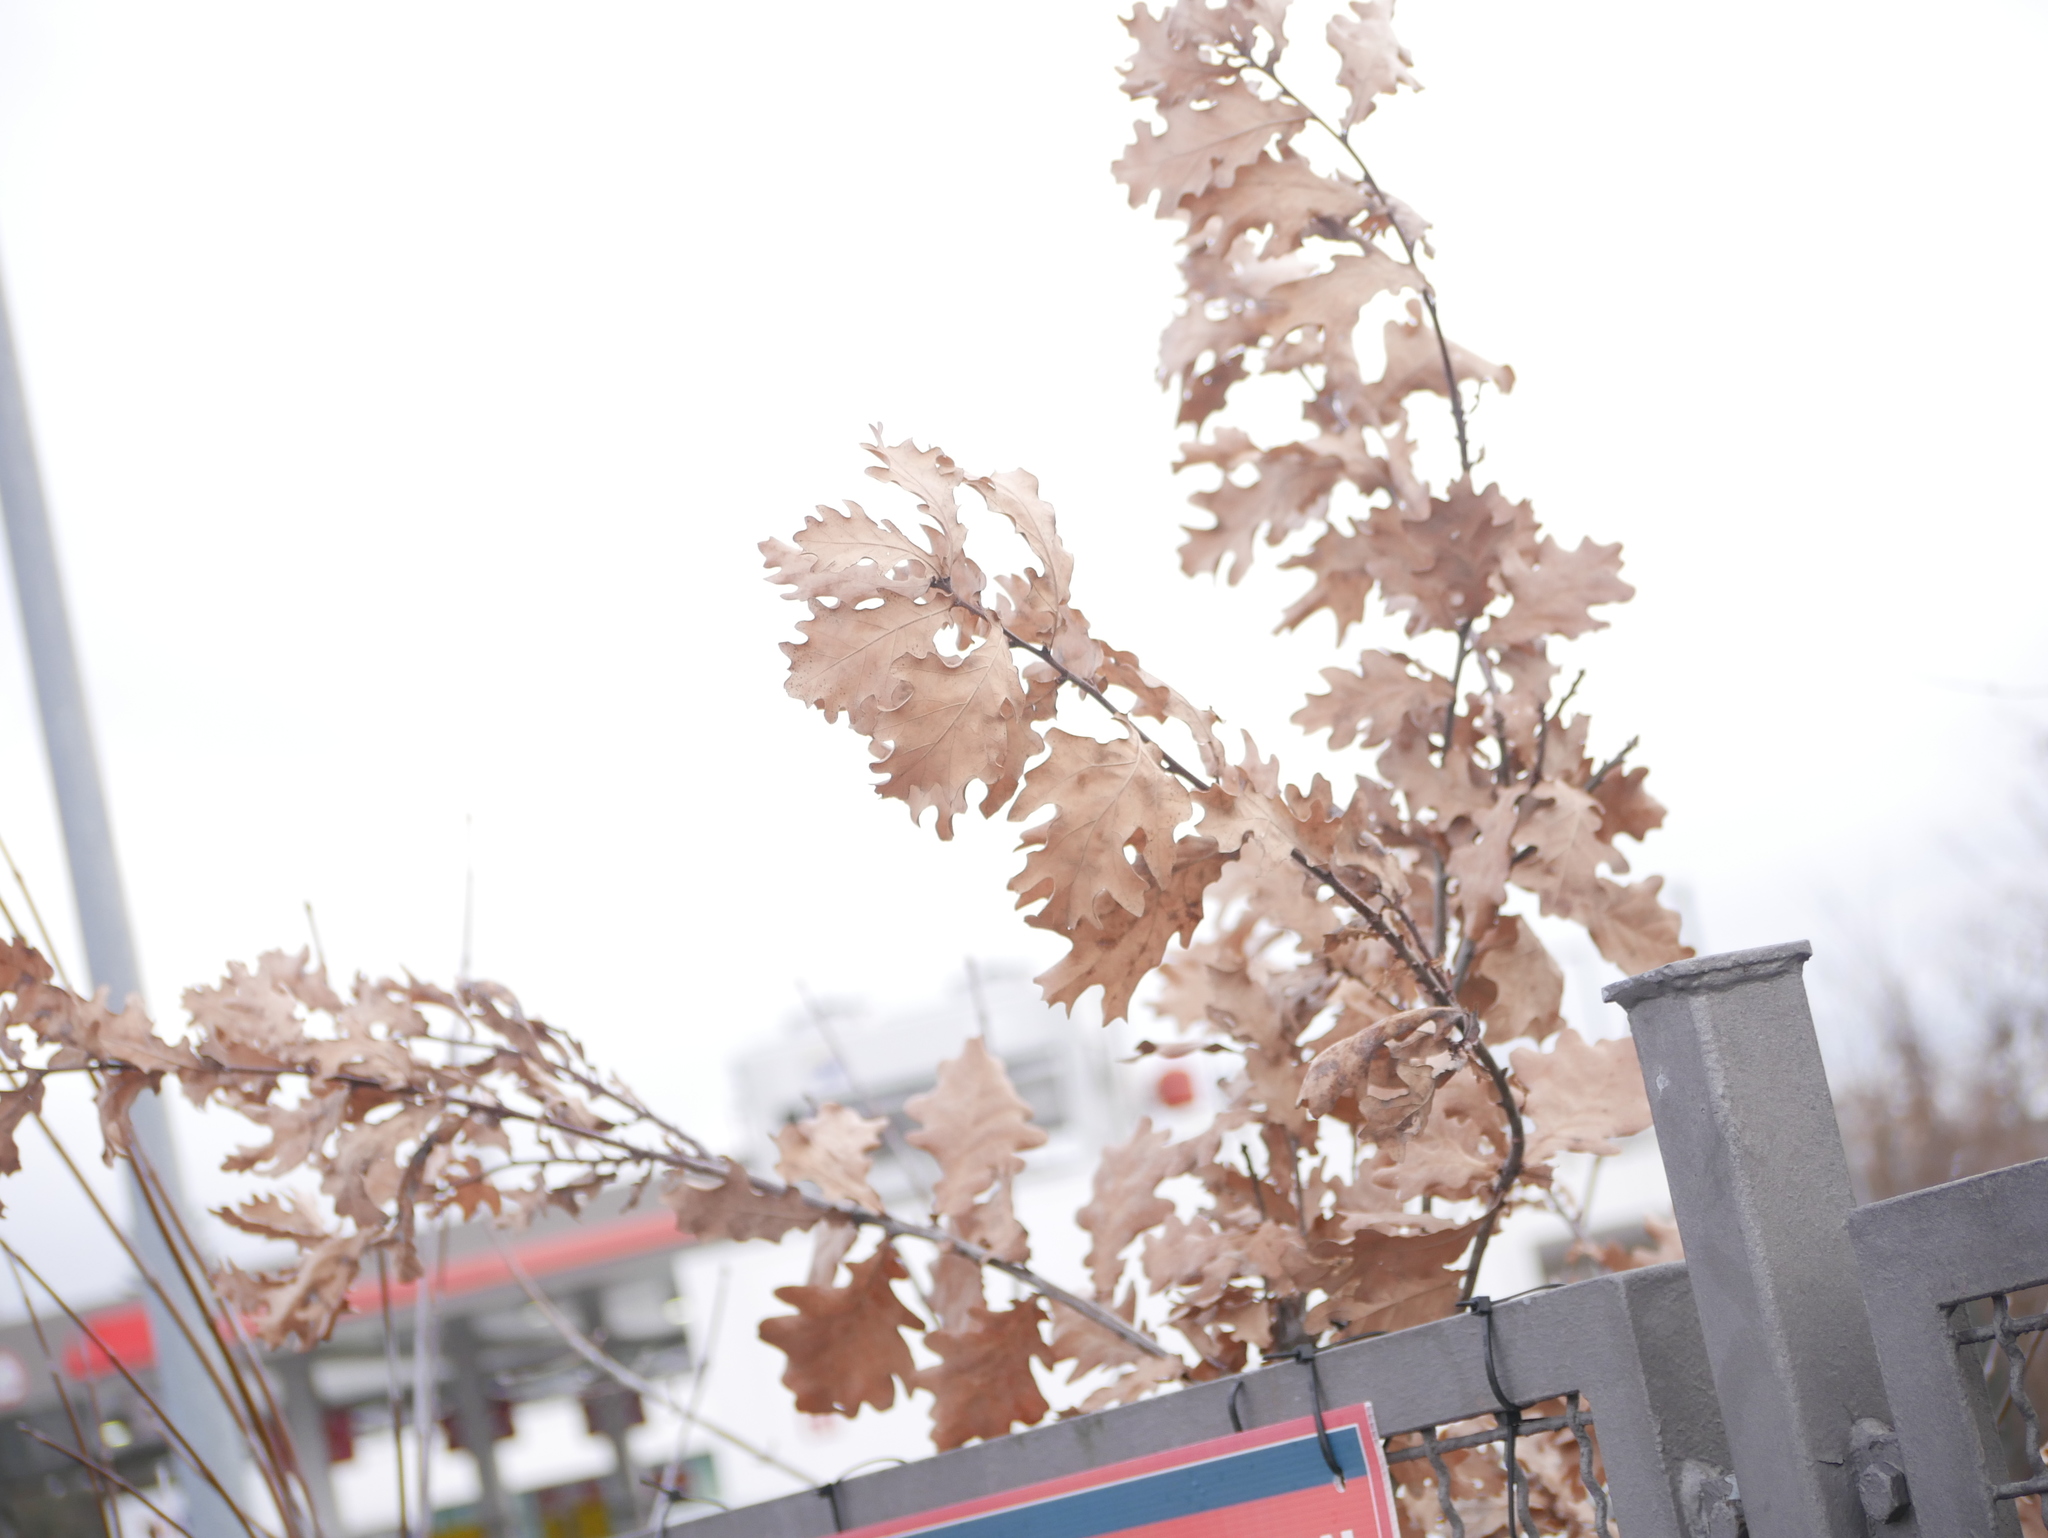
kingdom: Plantae
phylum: Tracheophyta
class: Magnoliopsida
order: Fagales
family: Fagaceae
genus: Quercus
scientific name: Quercus robur
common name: Pedunculate oak
